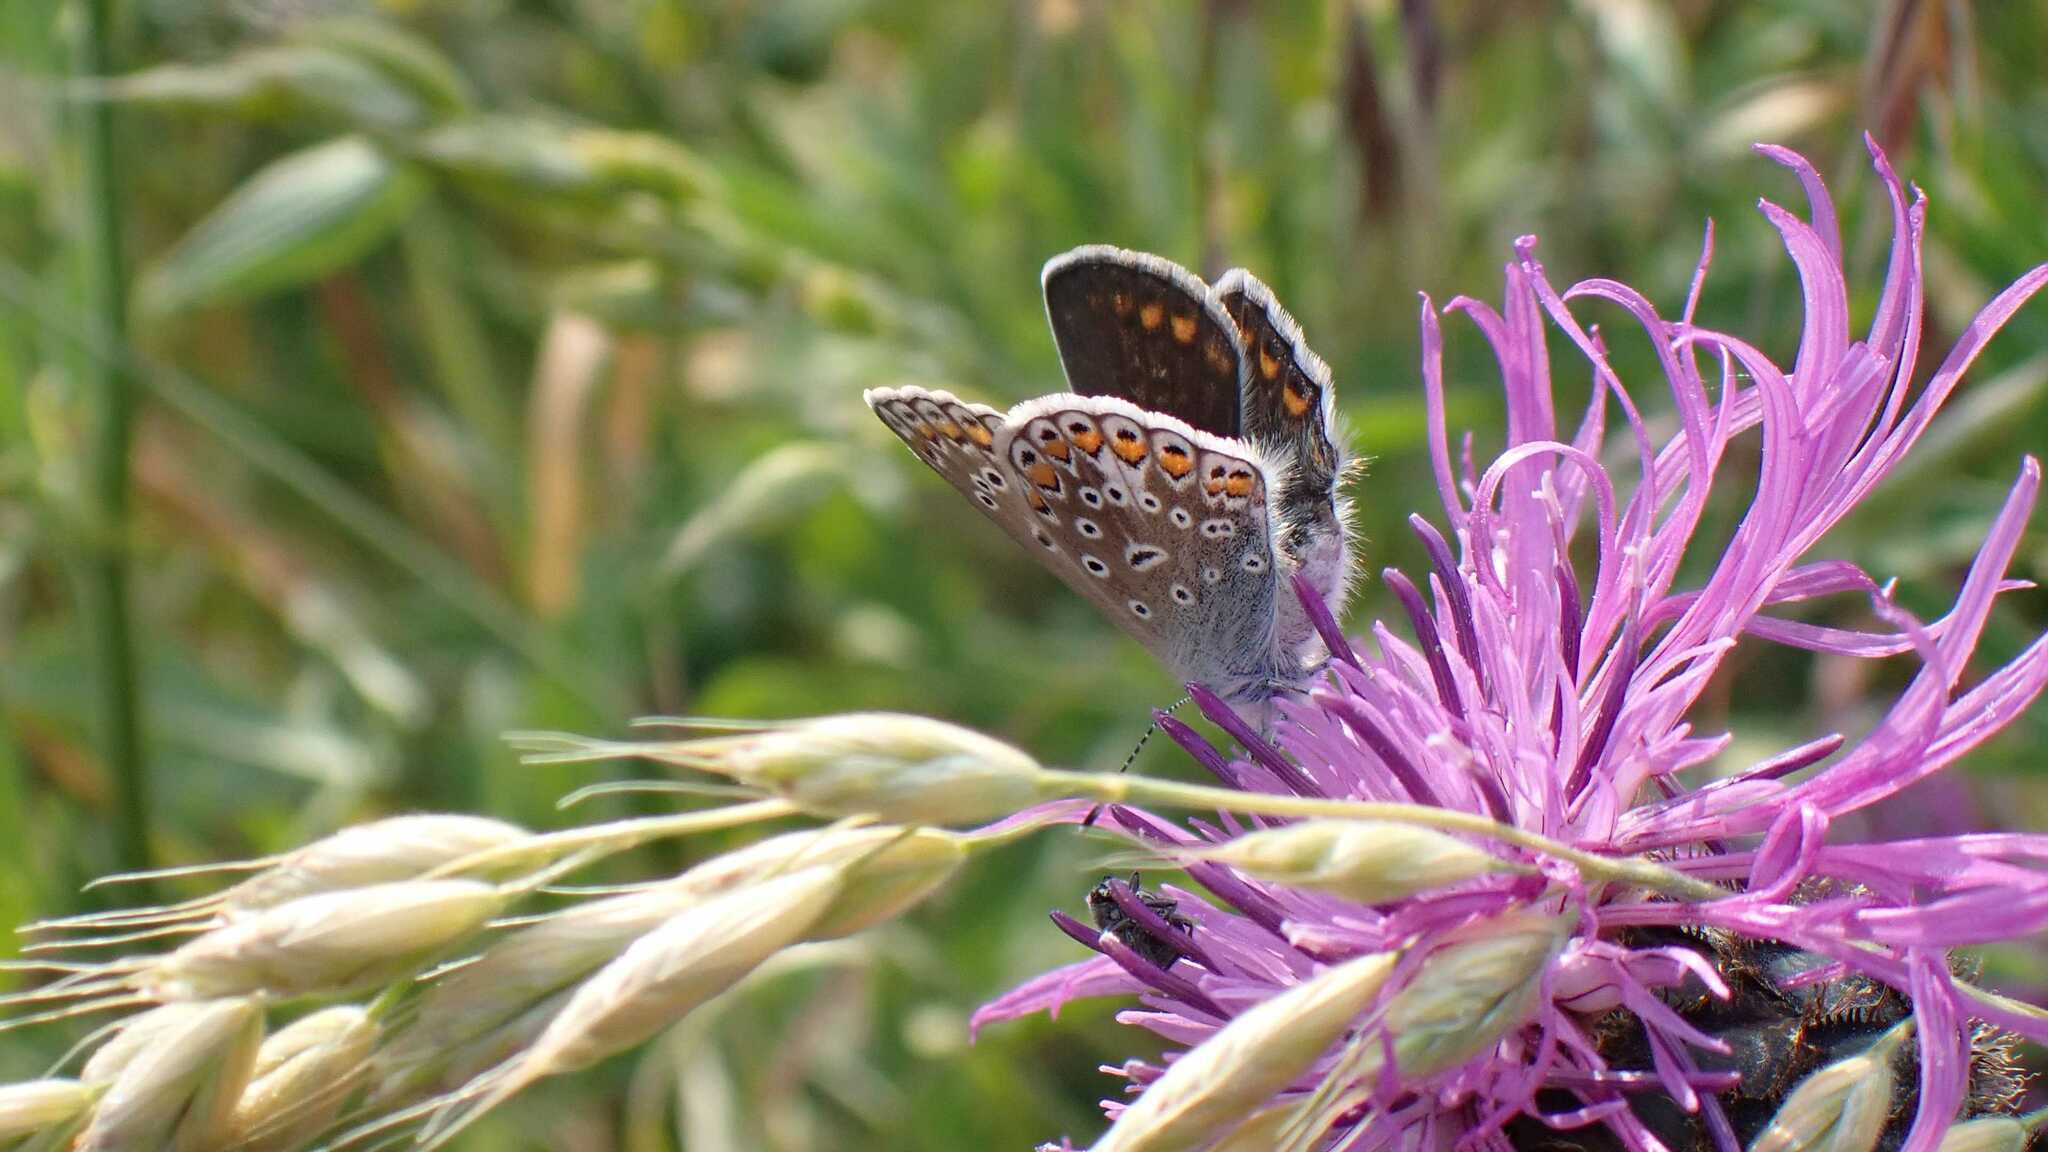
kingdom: Animalia
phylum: Arthropoda
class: Insecta
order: Lepidoptera
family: Lycaenidae
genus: Polyommatus
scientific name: Polyommatus icarus
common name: Common blue
